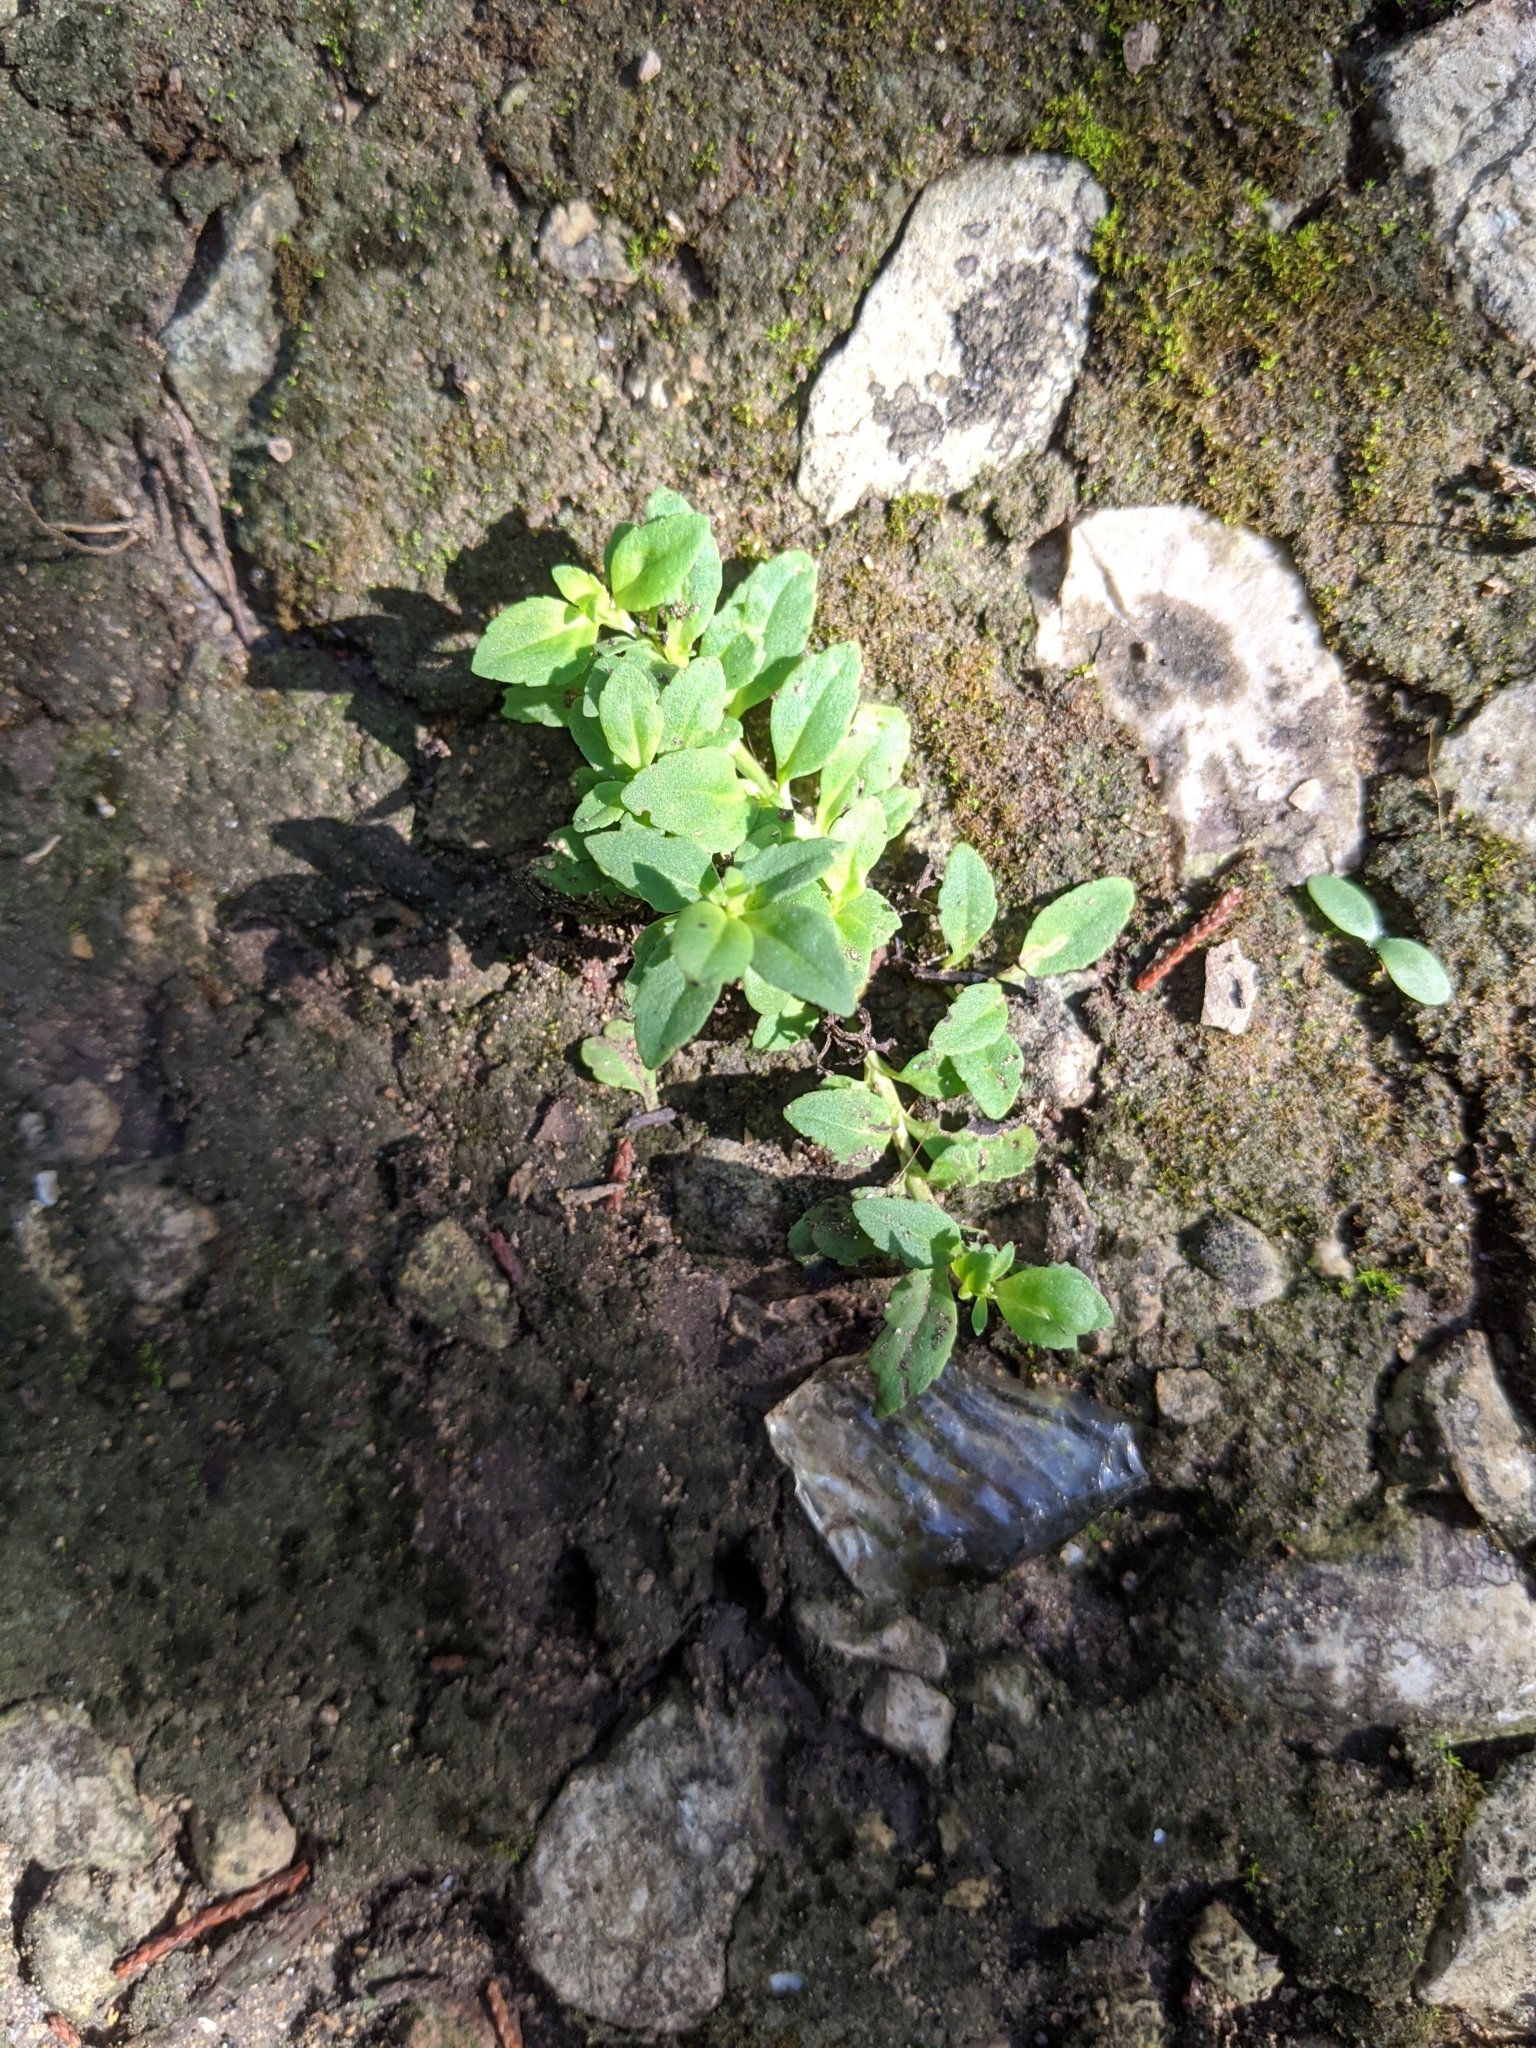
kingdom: Plantae
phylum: Tracheophyta
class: Magnoliopsida
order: Lamiales
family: Plantaginaceae
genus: Mecardonia
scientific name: Mecardonia procumbens
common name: Baby jump-up
